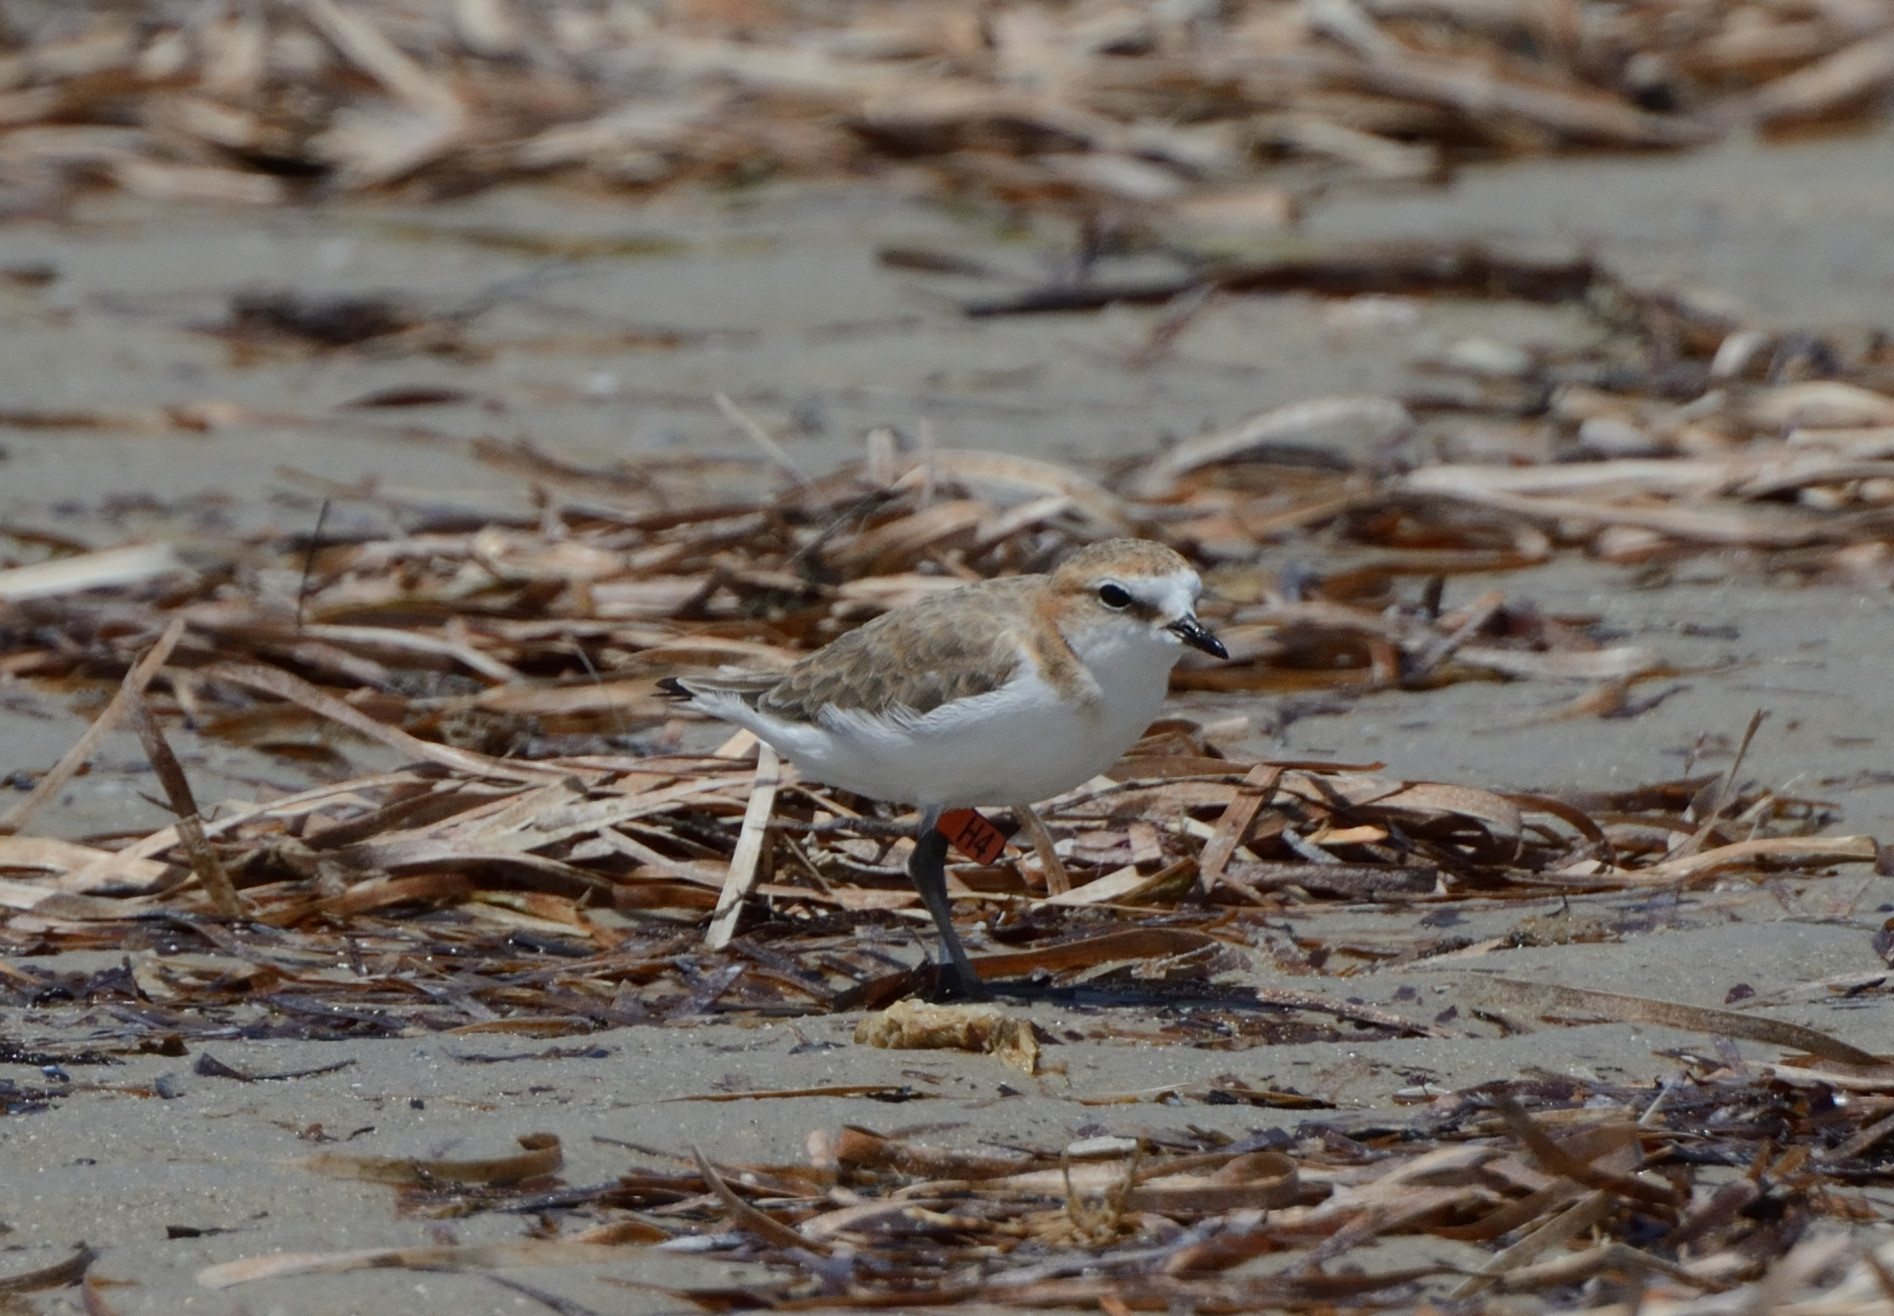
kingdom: Animalia
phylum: Chordata
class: Aves
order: Charadriiformes
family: Charadriidae
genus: Anarhynchus
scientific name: Anarhynchus
